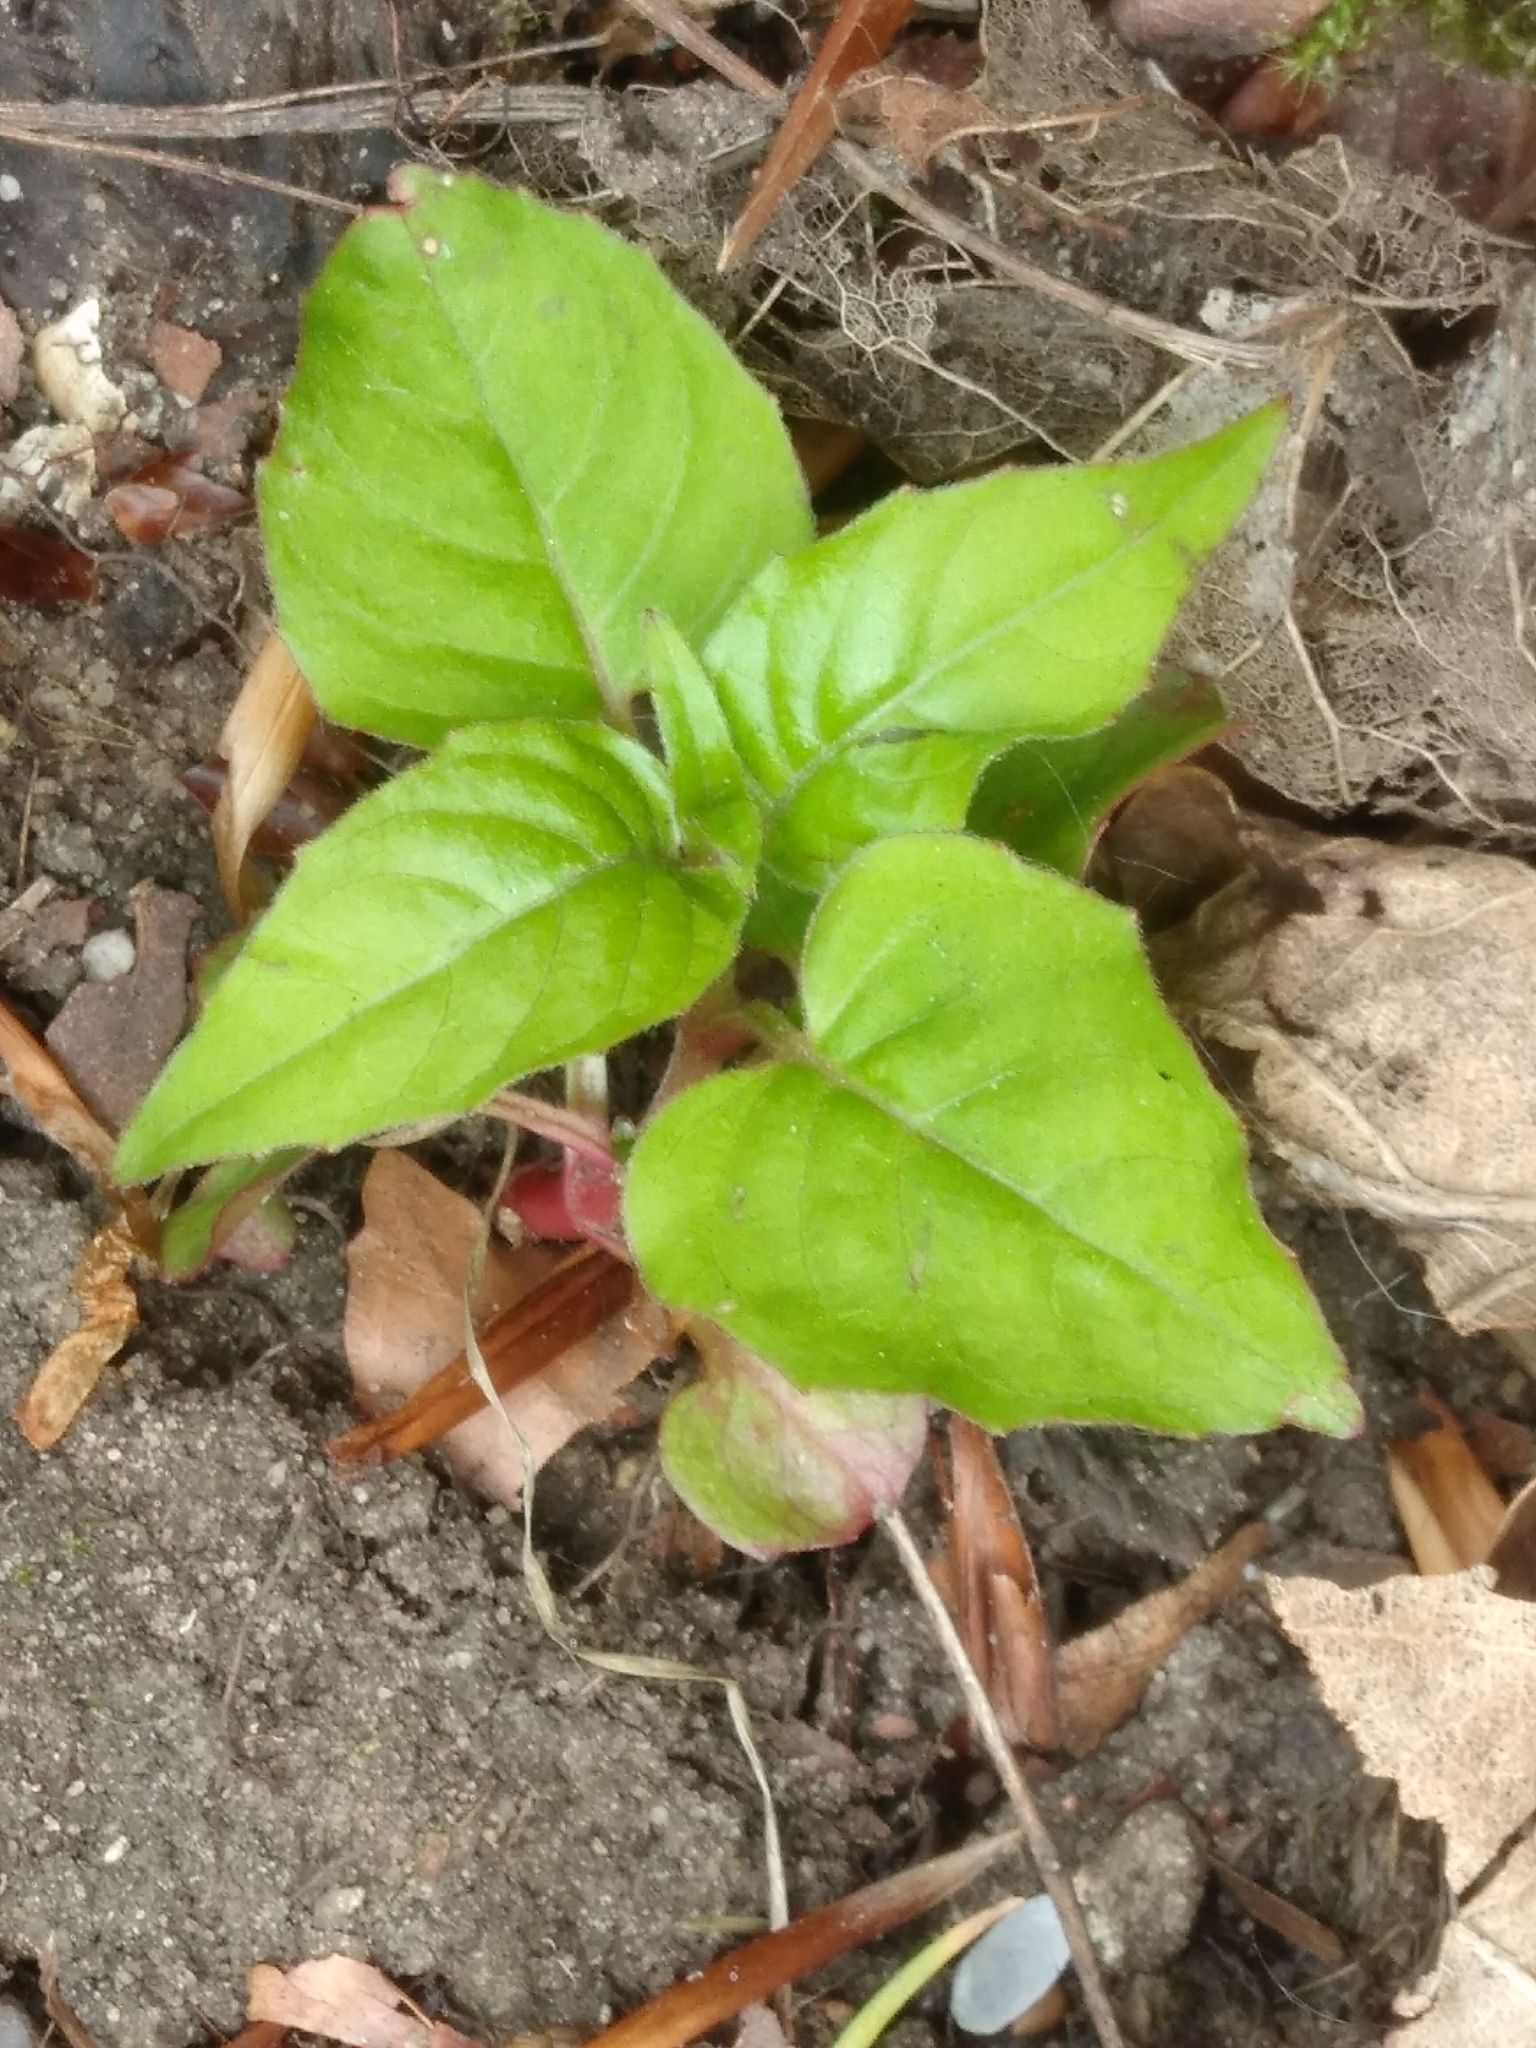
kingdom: Plantae
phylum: Tracheophyta
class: Magnoliopsida
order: Myrtales
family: Onagraceae
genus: Circaea
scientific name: Circaea lutetiana
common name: Enchanter's-nightshade
